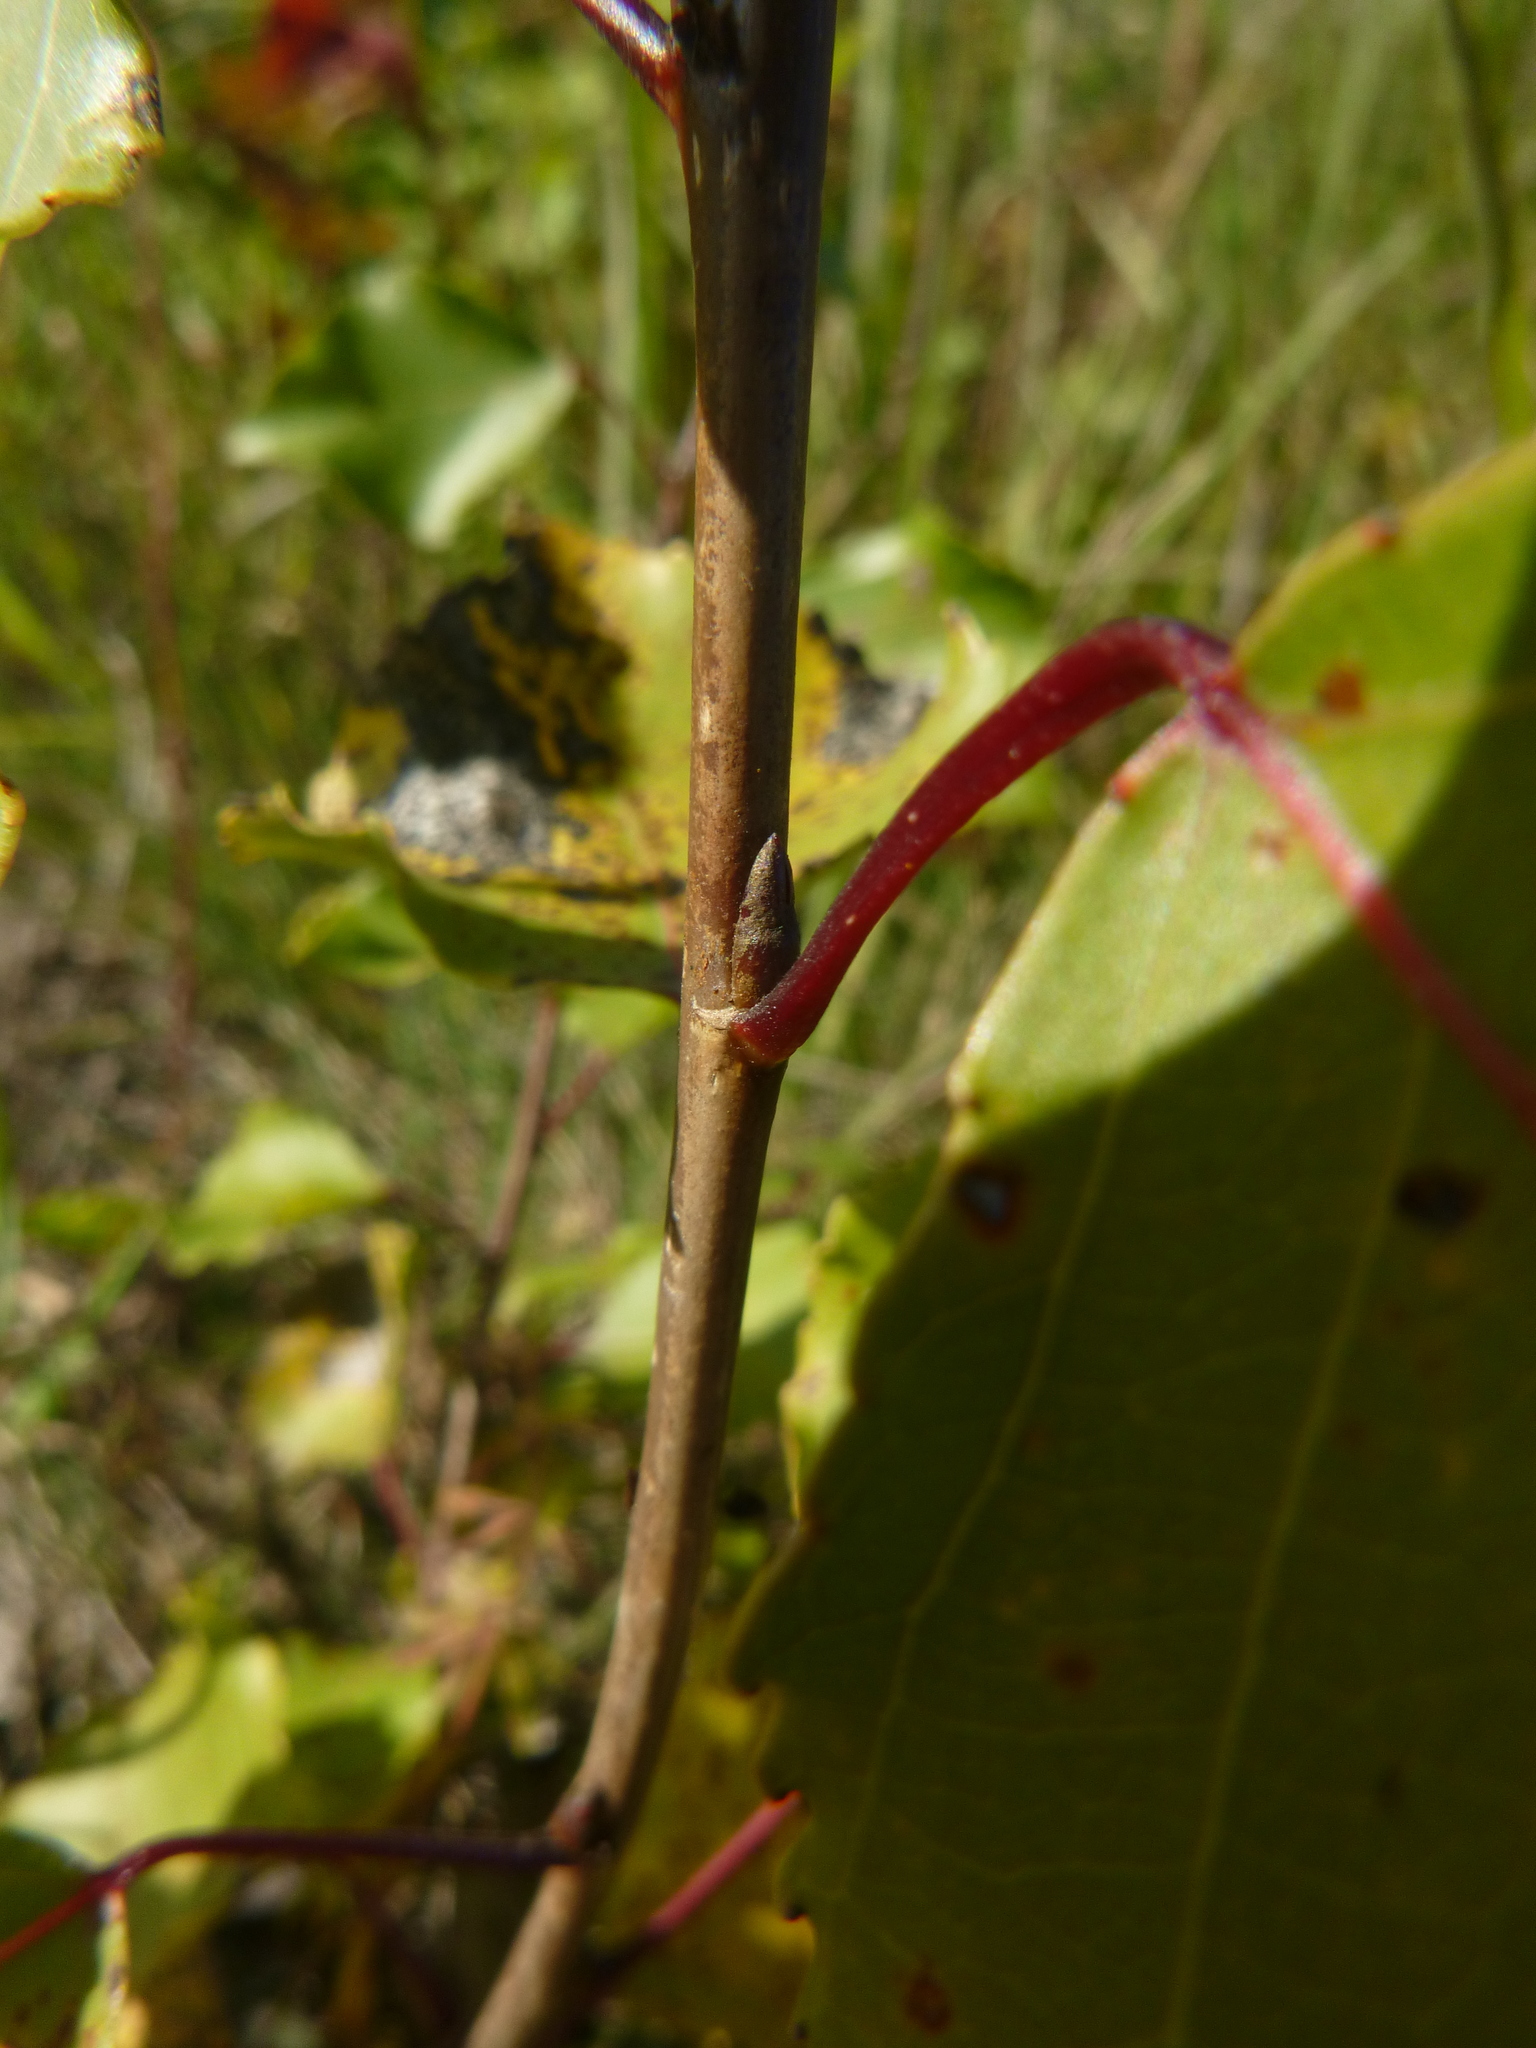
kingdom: Plantae
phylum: Tracheophyta
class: Magnoliopsida
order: Malpighiales
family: Salicaceae
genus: Populus
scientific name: Populus nigra
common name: Black poplar
